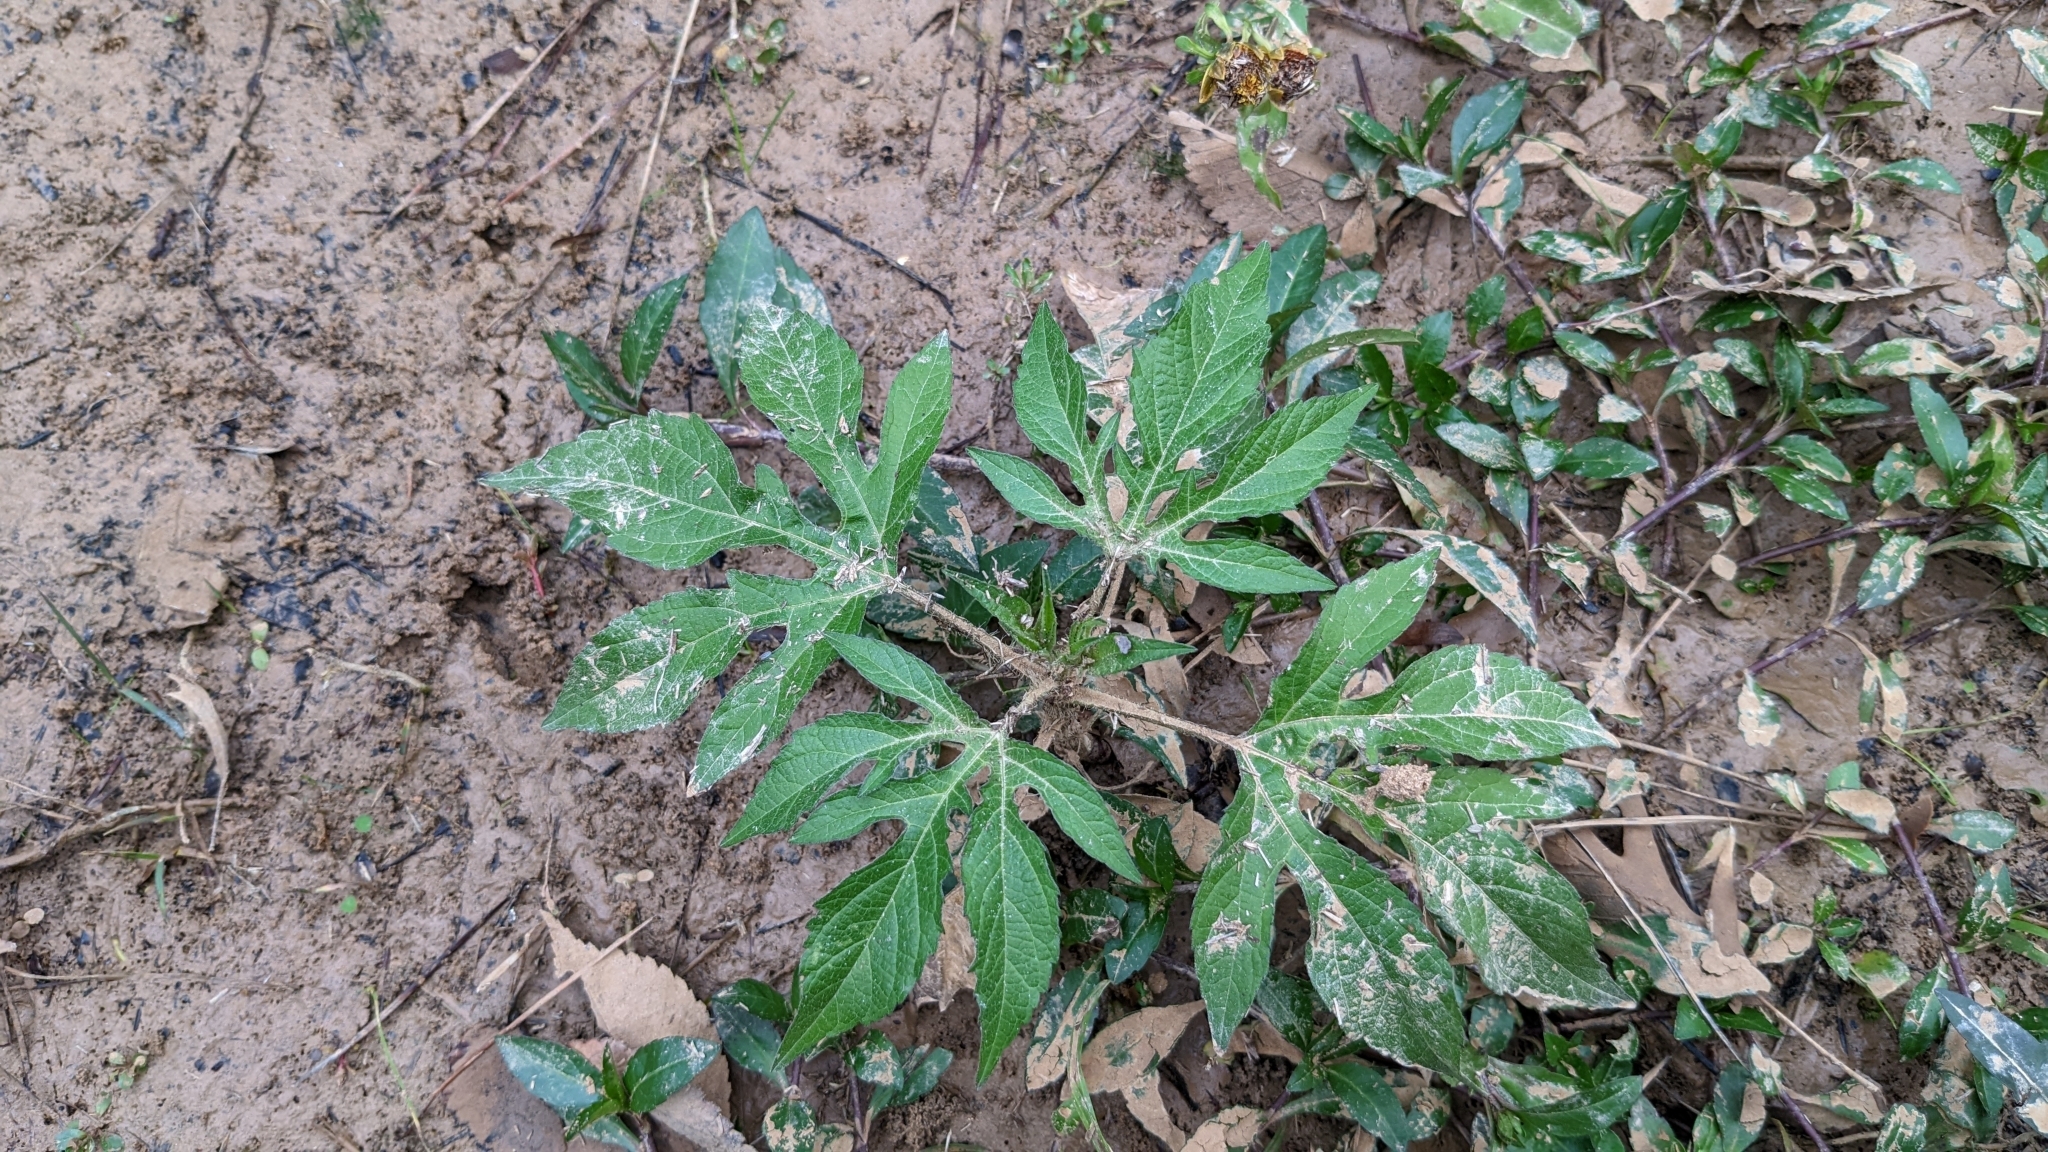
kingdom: Plantae
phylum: Tracheophyta
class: Magnoliopsida
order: Asterales
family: Asteraceae
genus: Ambrosia
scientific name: Ambrosia trifida
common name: Giant ragweed
